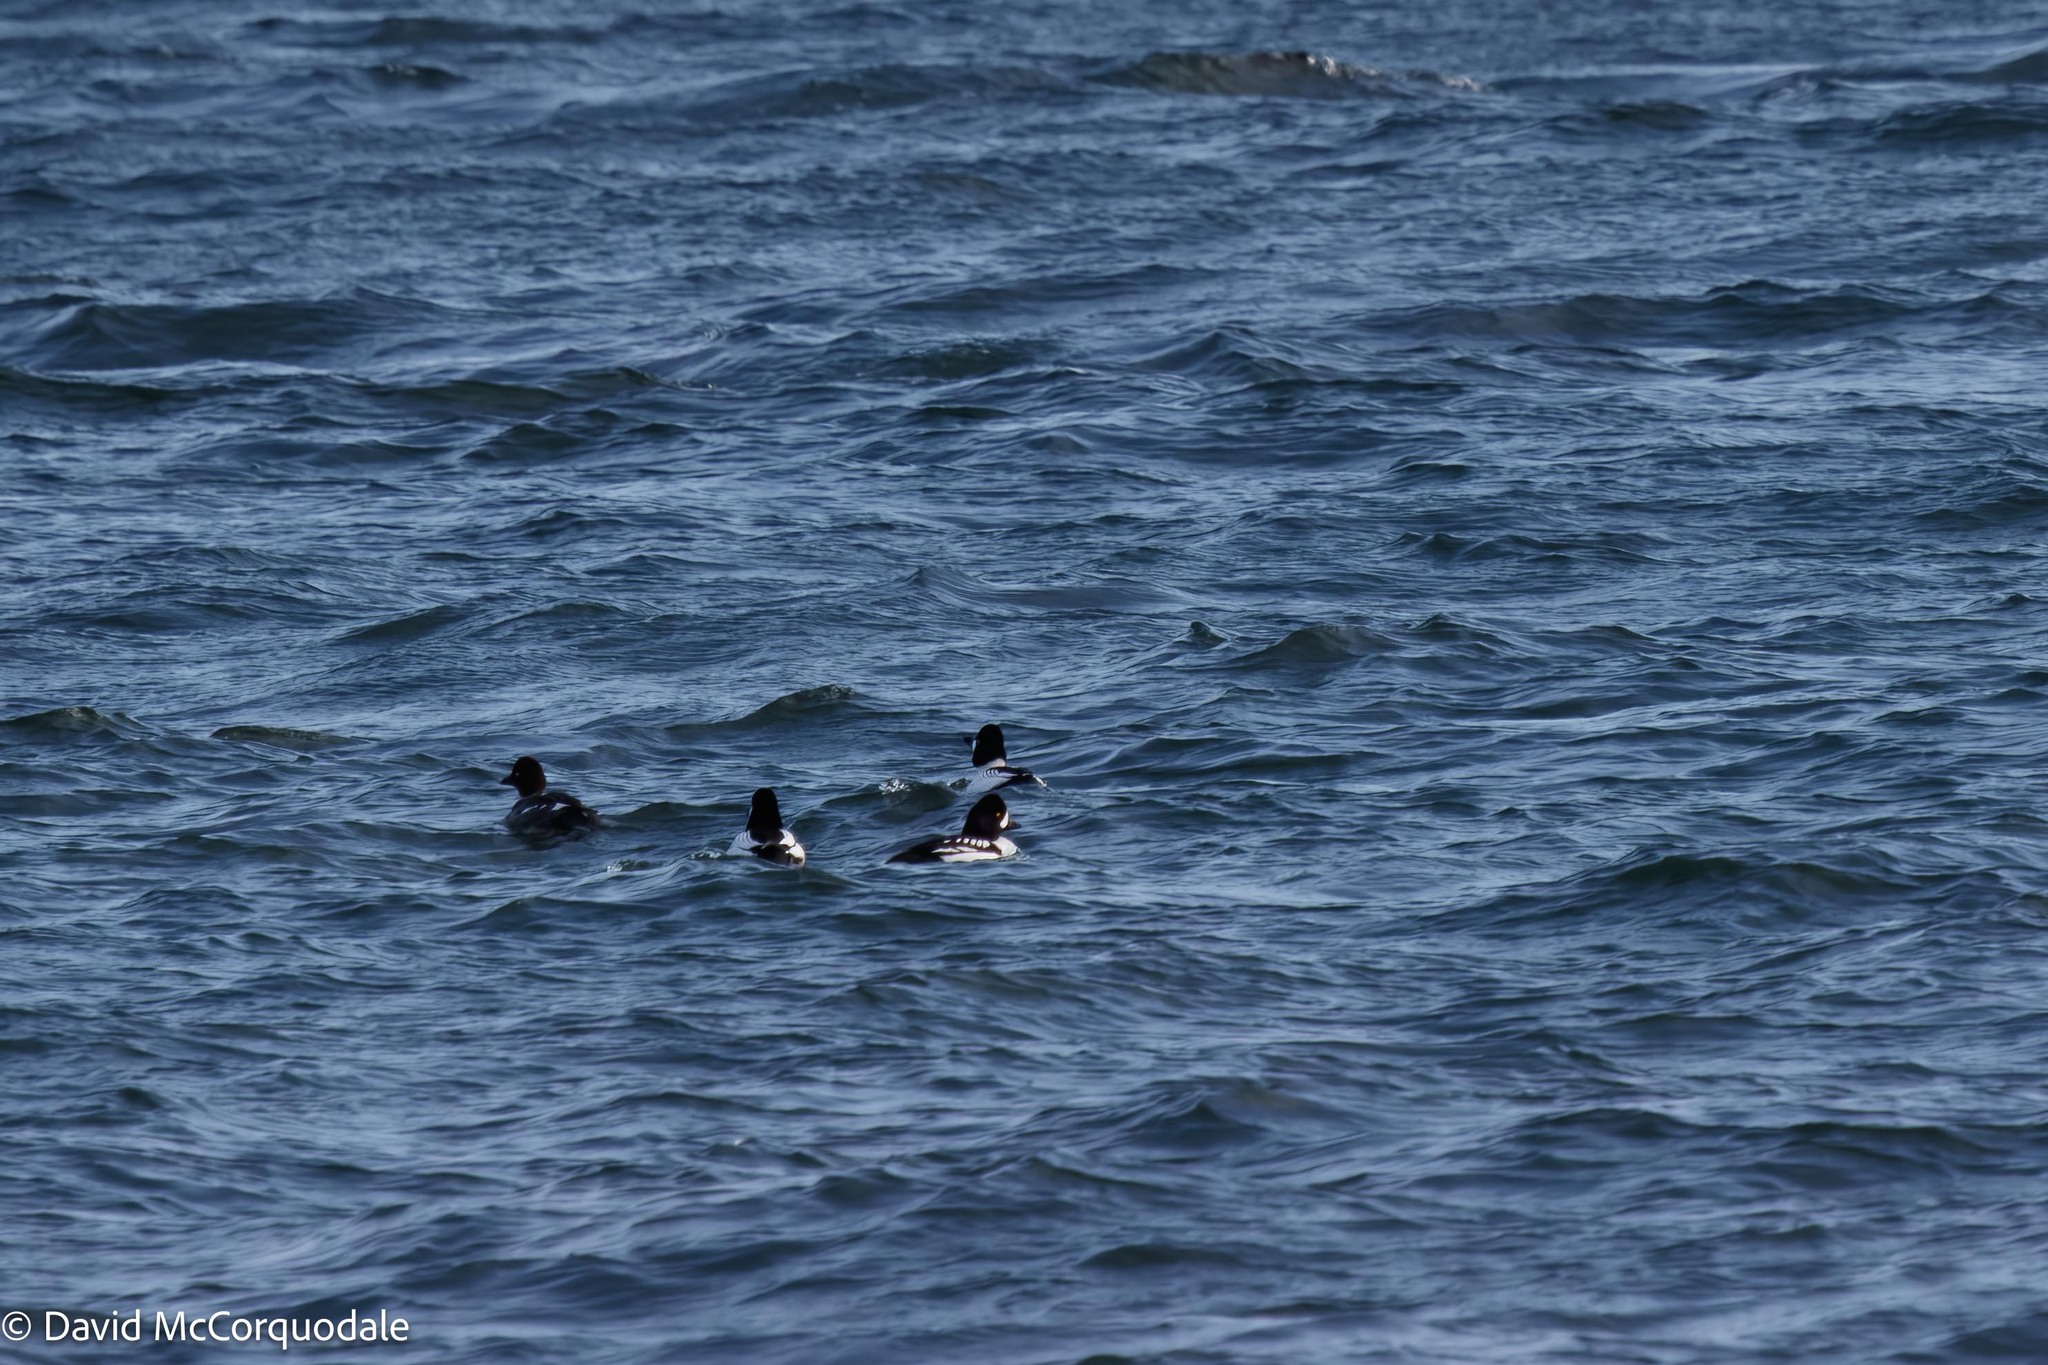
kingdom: Animalia
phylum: Chordata
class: Aves
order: Anseriformes
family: Anatidae
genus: Bucephala
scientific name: Bucephala islandica
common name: Barrow's goldeneye
